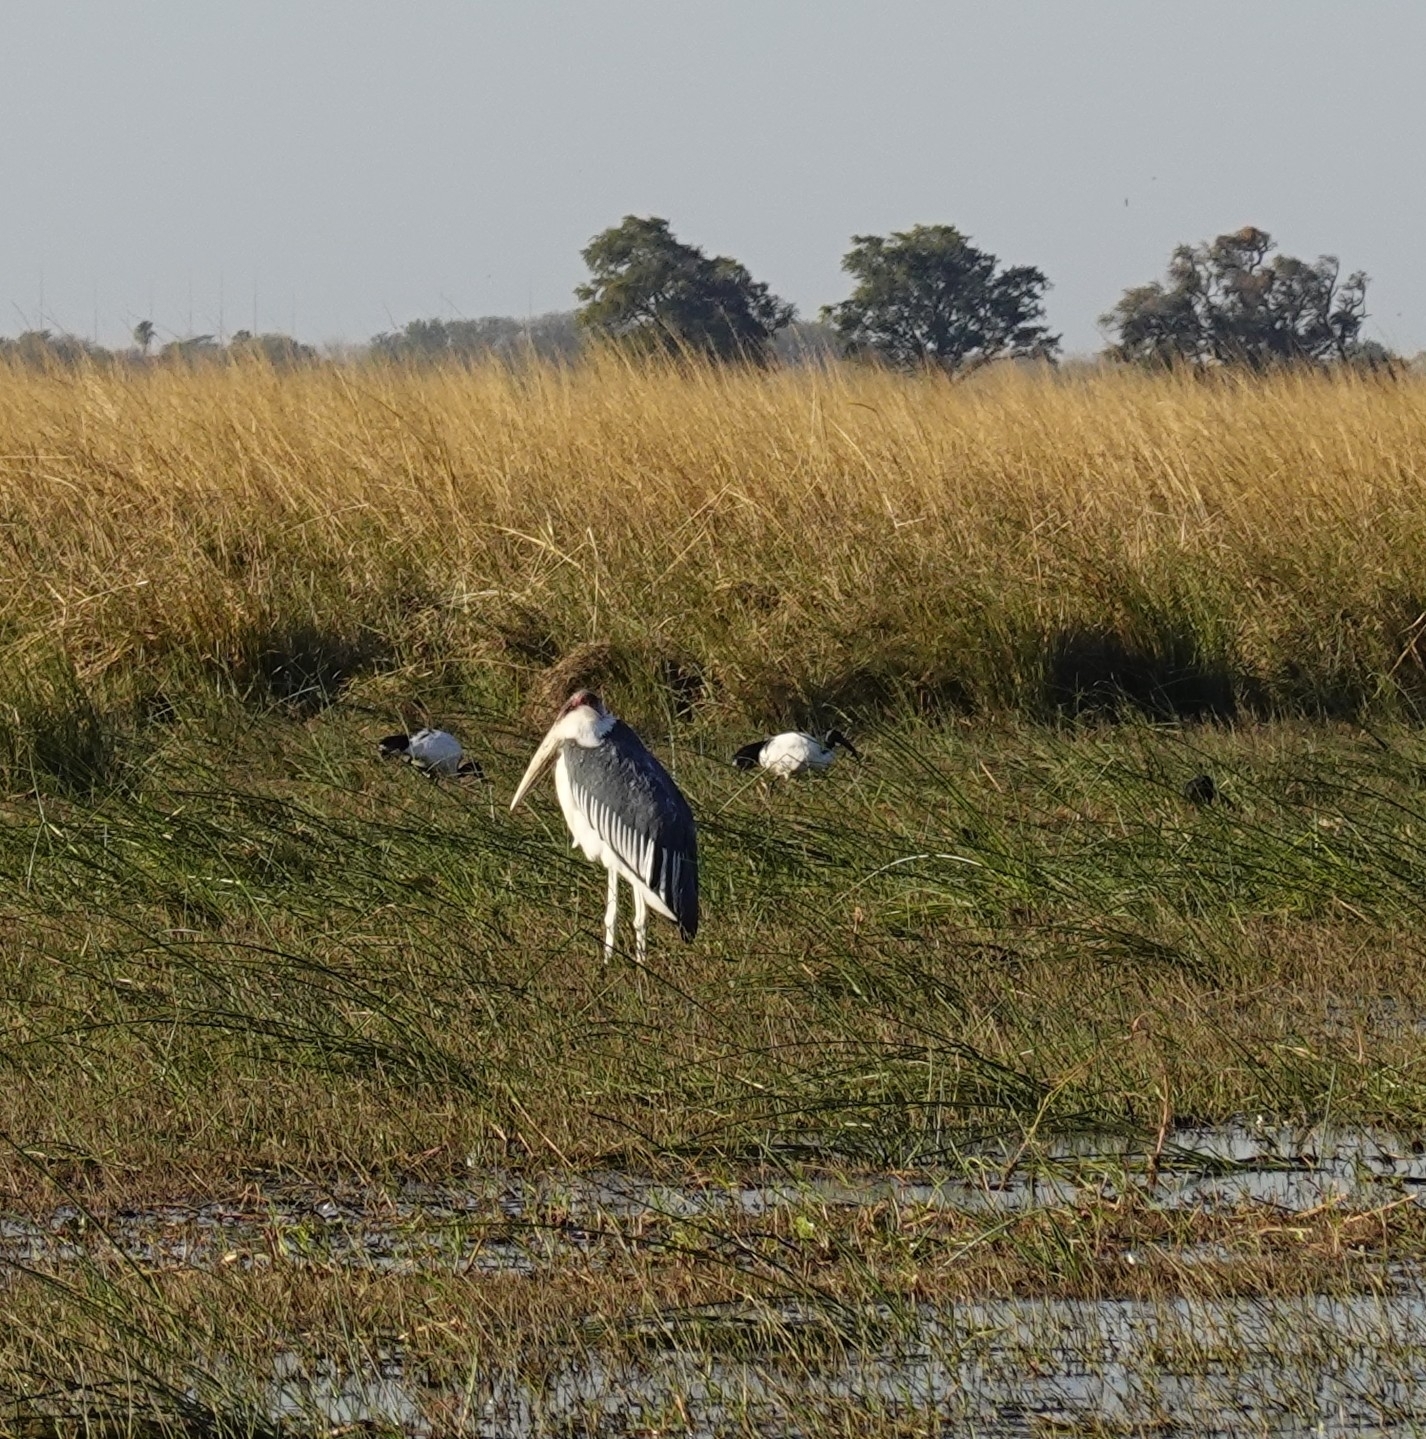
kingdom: Animalia
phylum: Chordata
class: Aves
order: Ciconiiformes
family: Ciconiidae
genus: Leptoptilos
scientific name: Leptoptilos crumenifer
